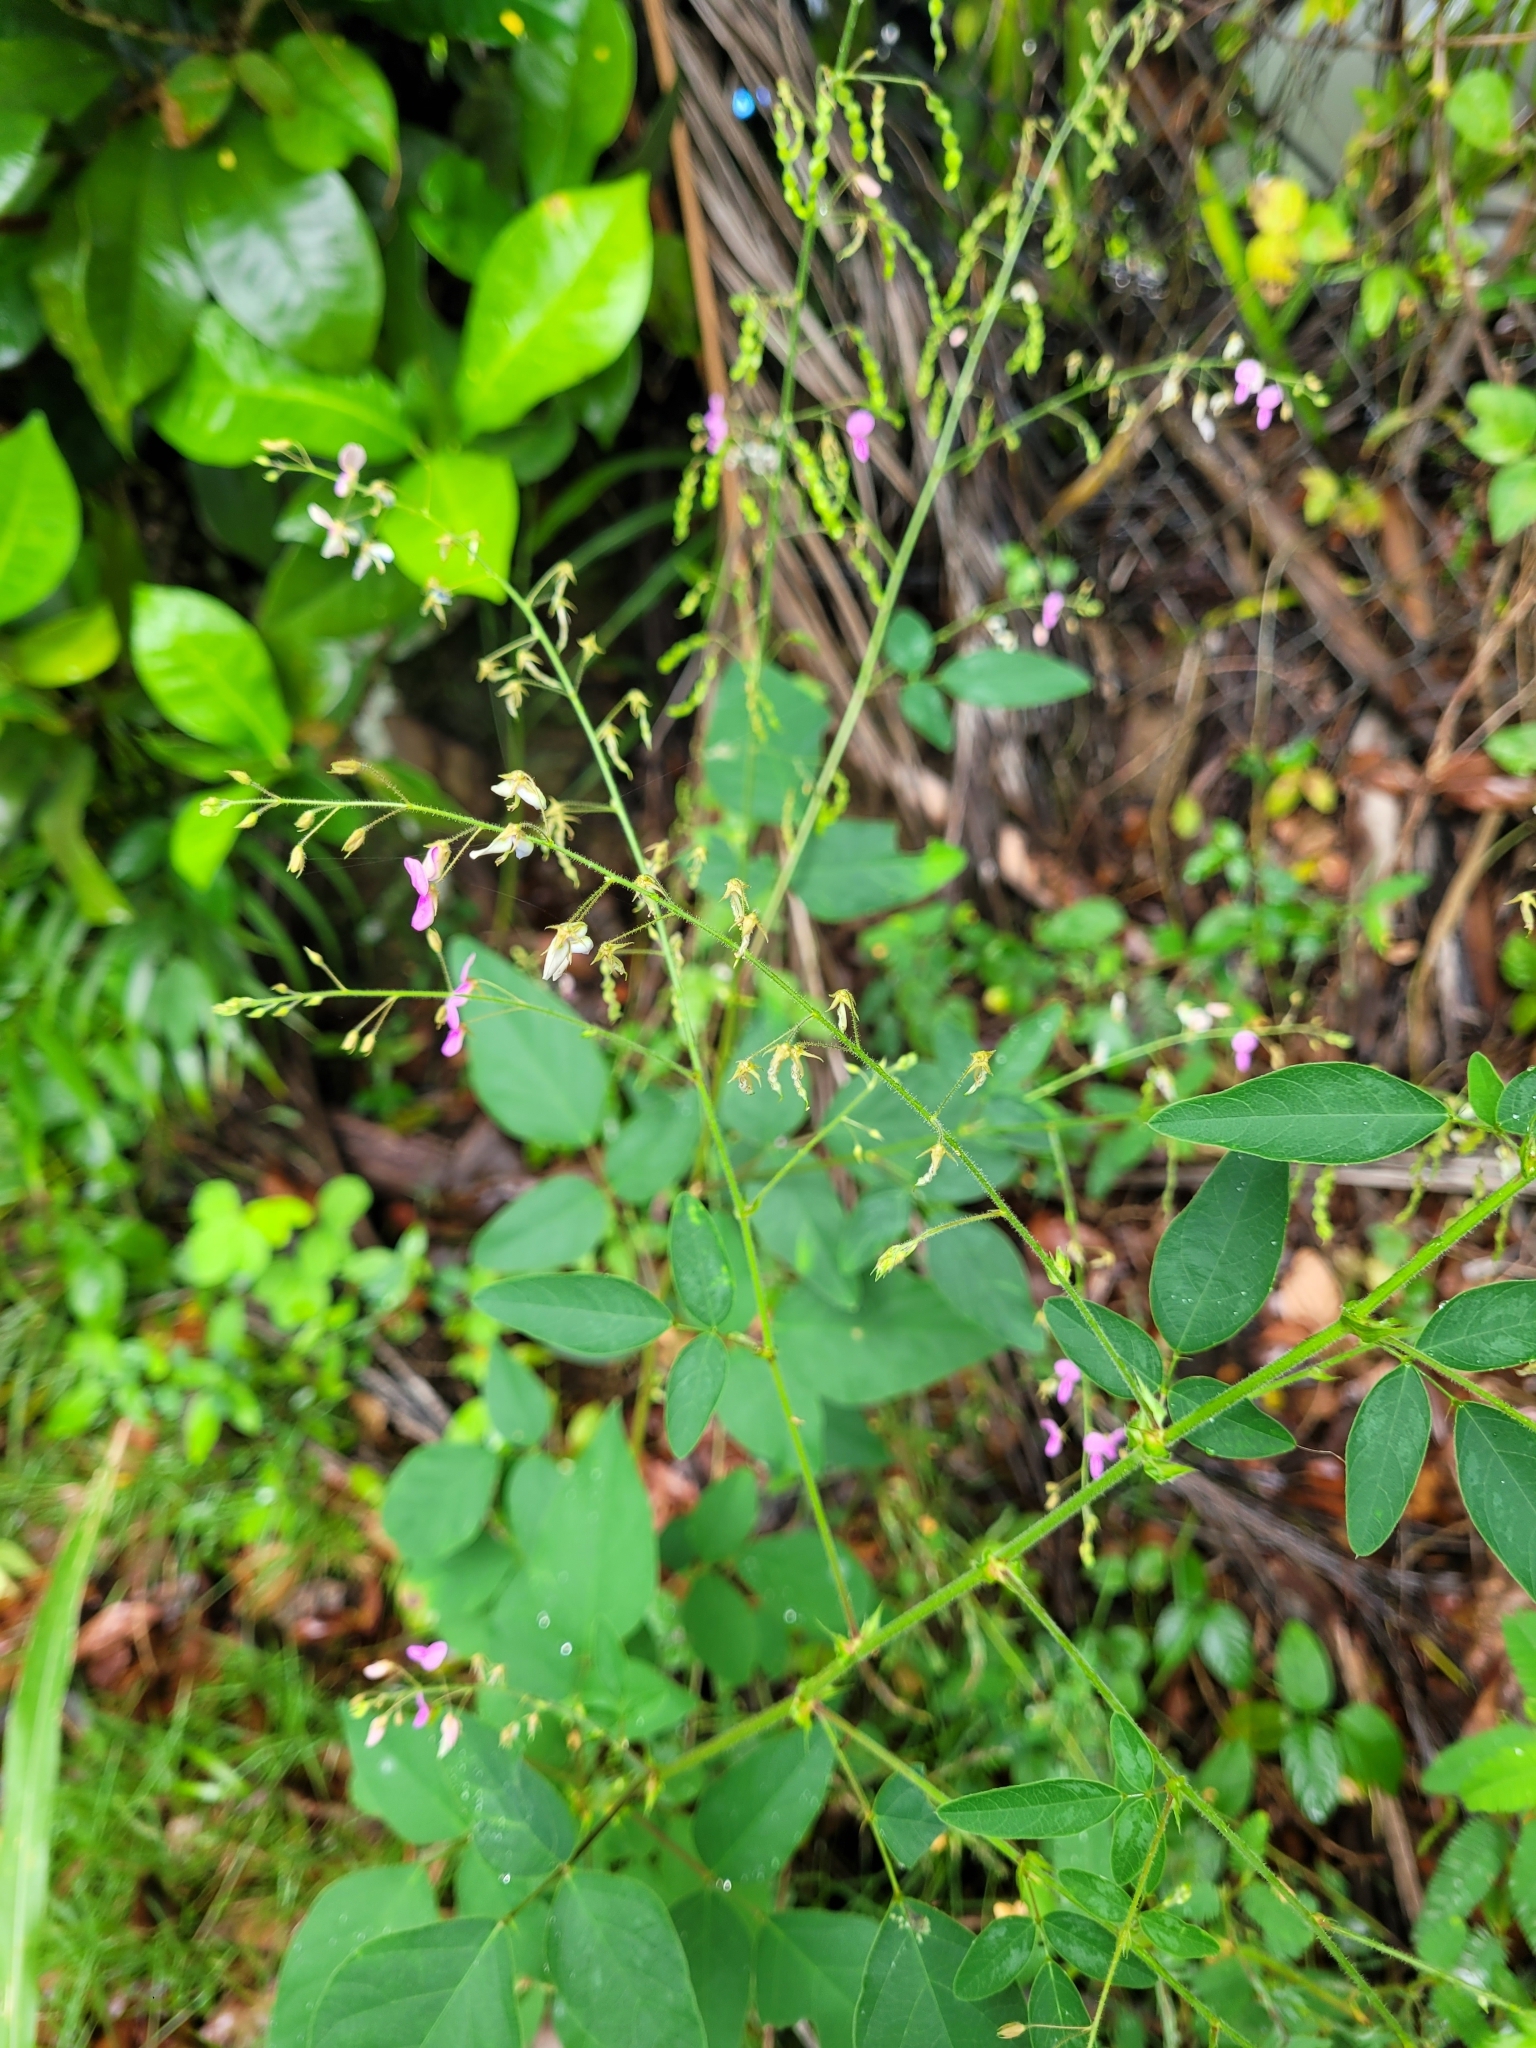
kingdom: Plantae
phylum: Tracheophyta
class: Magnoliopsida
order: Fabales
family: Fabaceae
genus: Desmodium
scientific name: Desmodium incanum
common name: Tickclover
